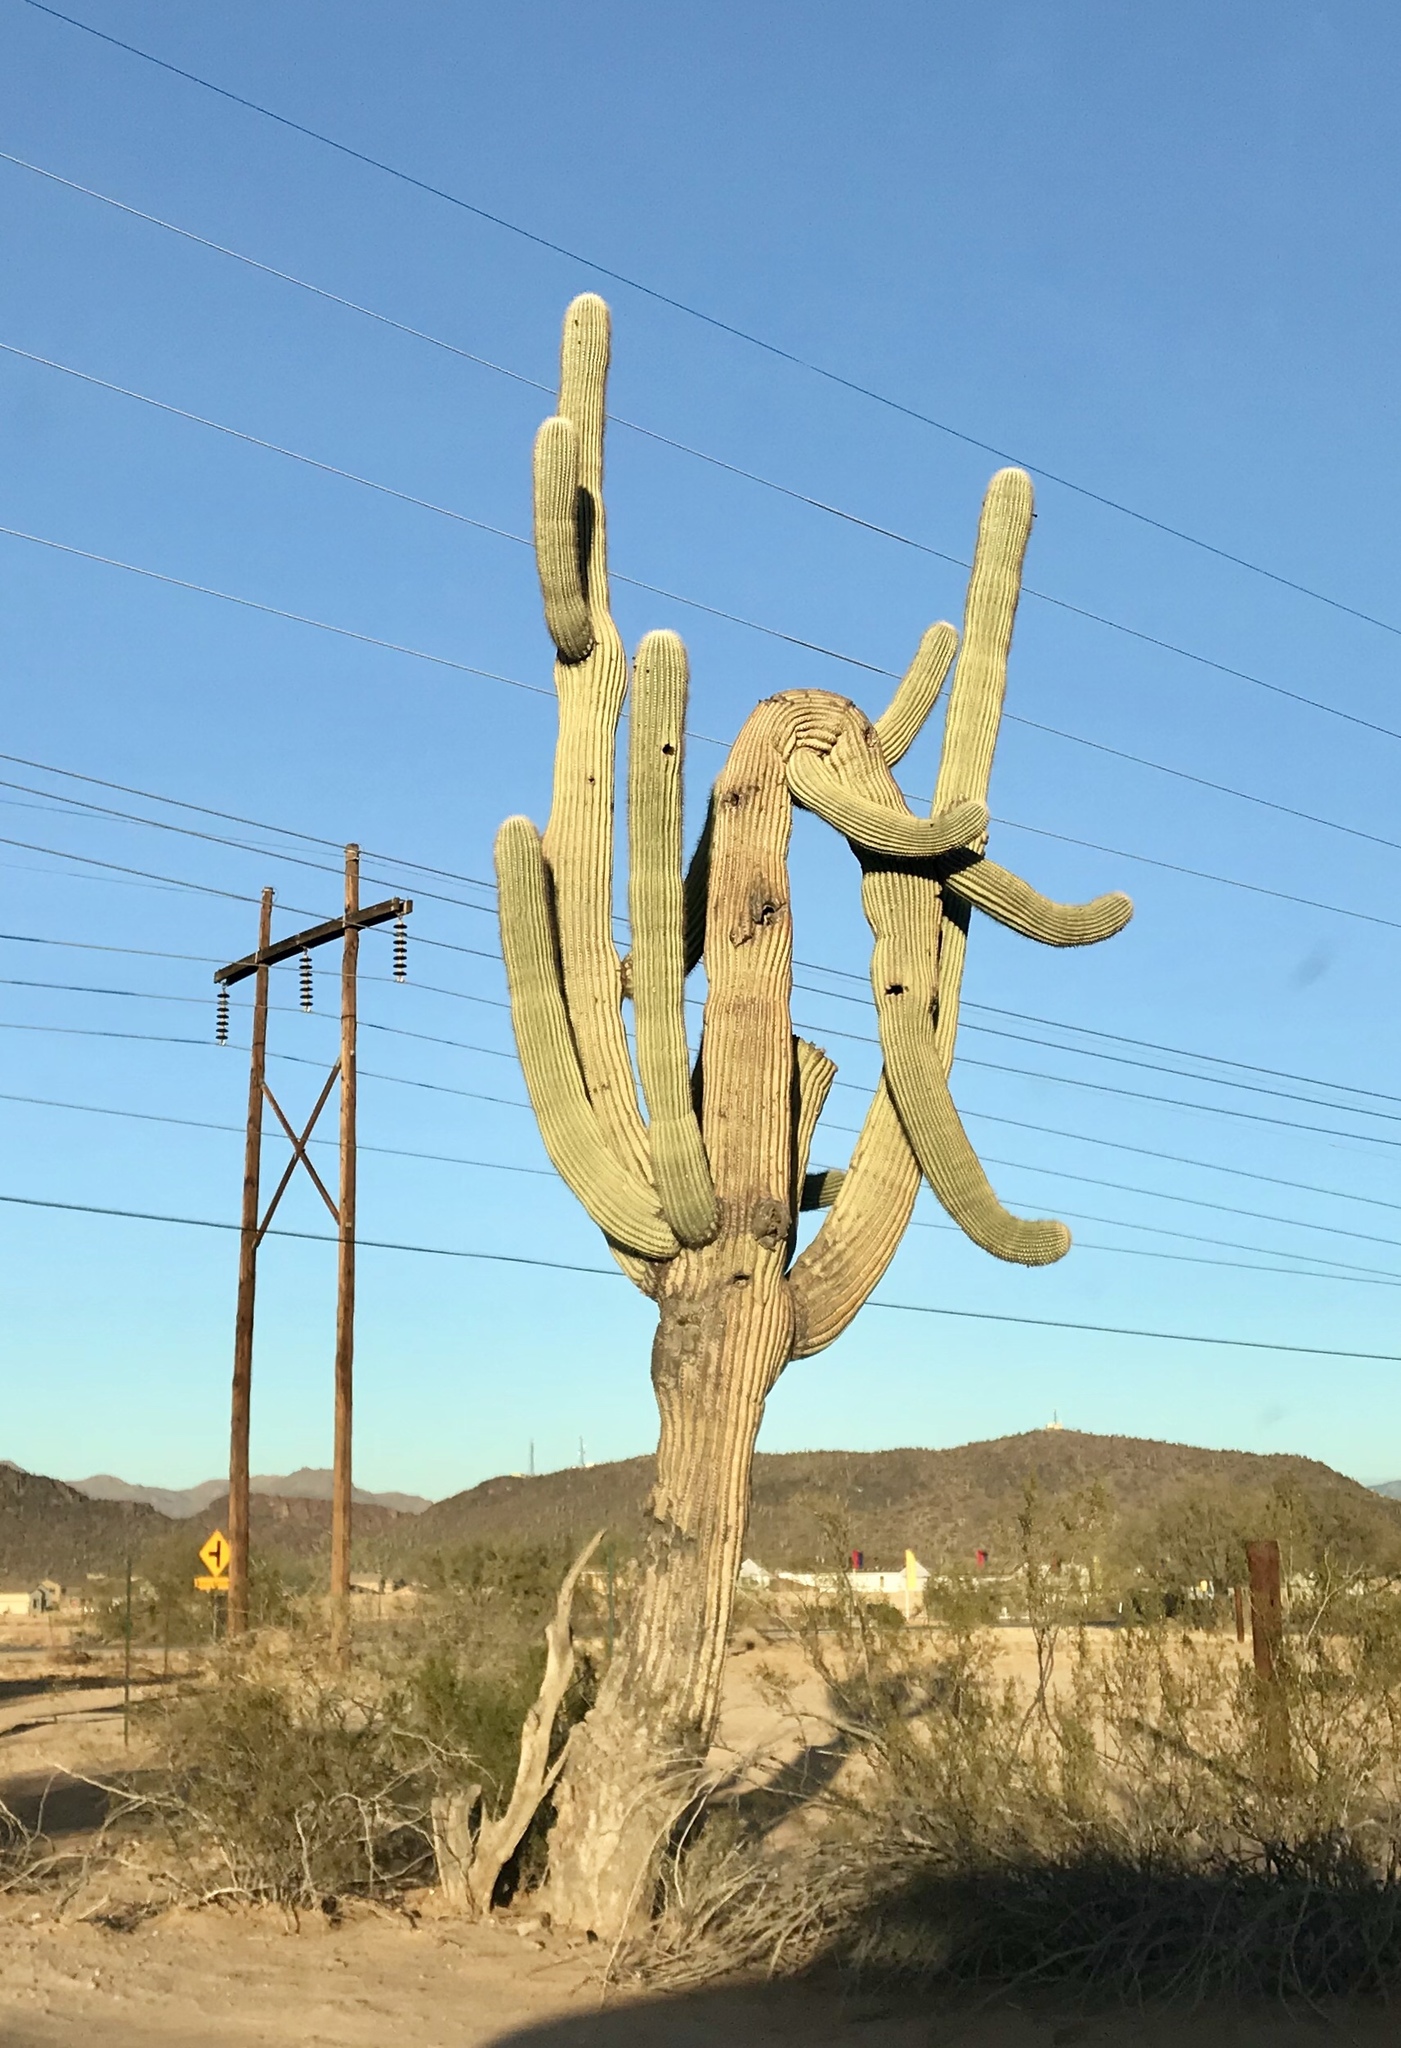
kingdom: Plantae
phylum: Tracheophyta
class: Magnoliopsida
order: Caryophyllales
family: Cactaceae
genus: Carnegiea
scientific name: Carnegiea gigantea
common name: Saguaro
